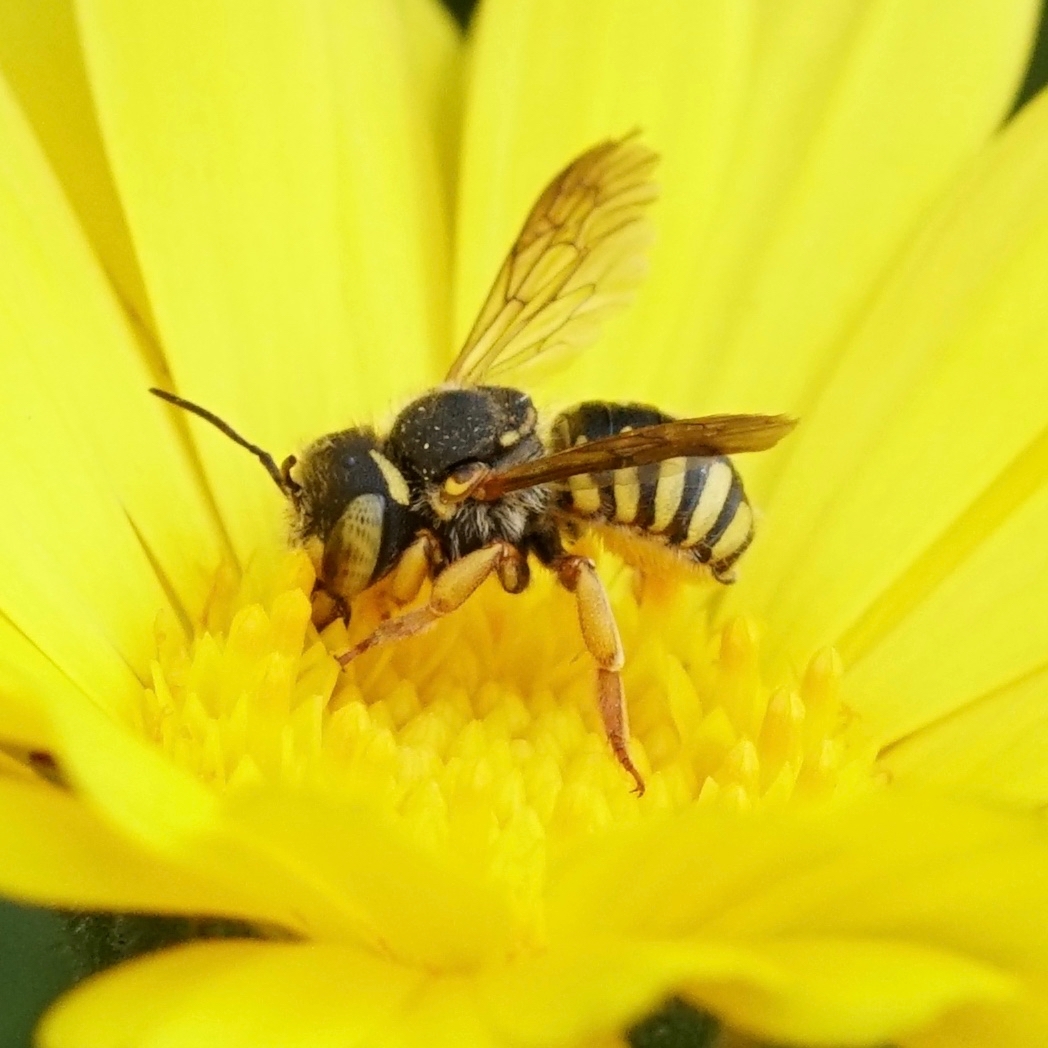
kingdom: Animalia
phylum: Arthropoda
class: Insecta
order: Hymenoptera
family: Megachilidae
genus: Anthidium
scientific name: Anthidium oblongatum
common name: Oblong wool carder bee
